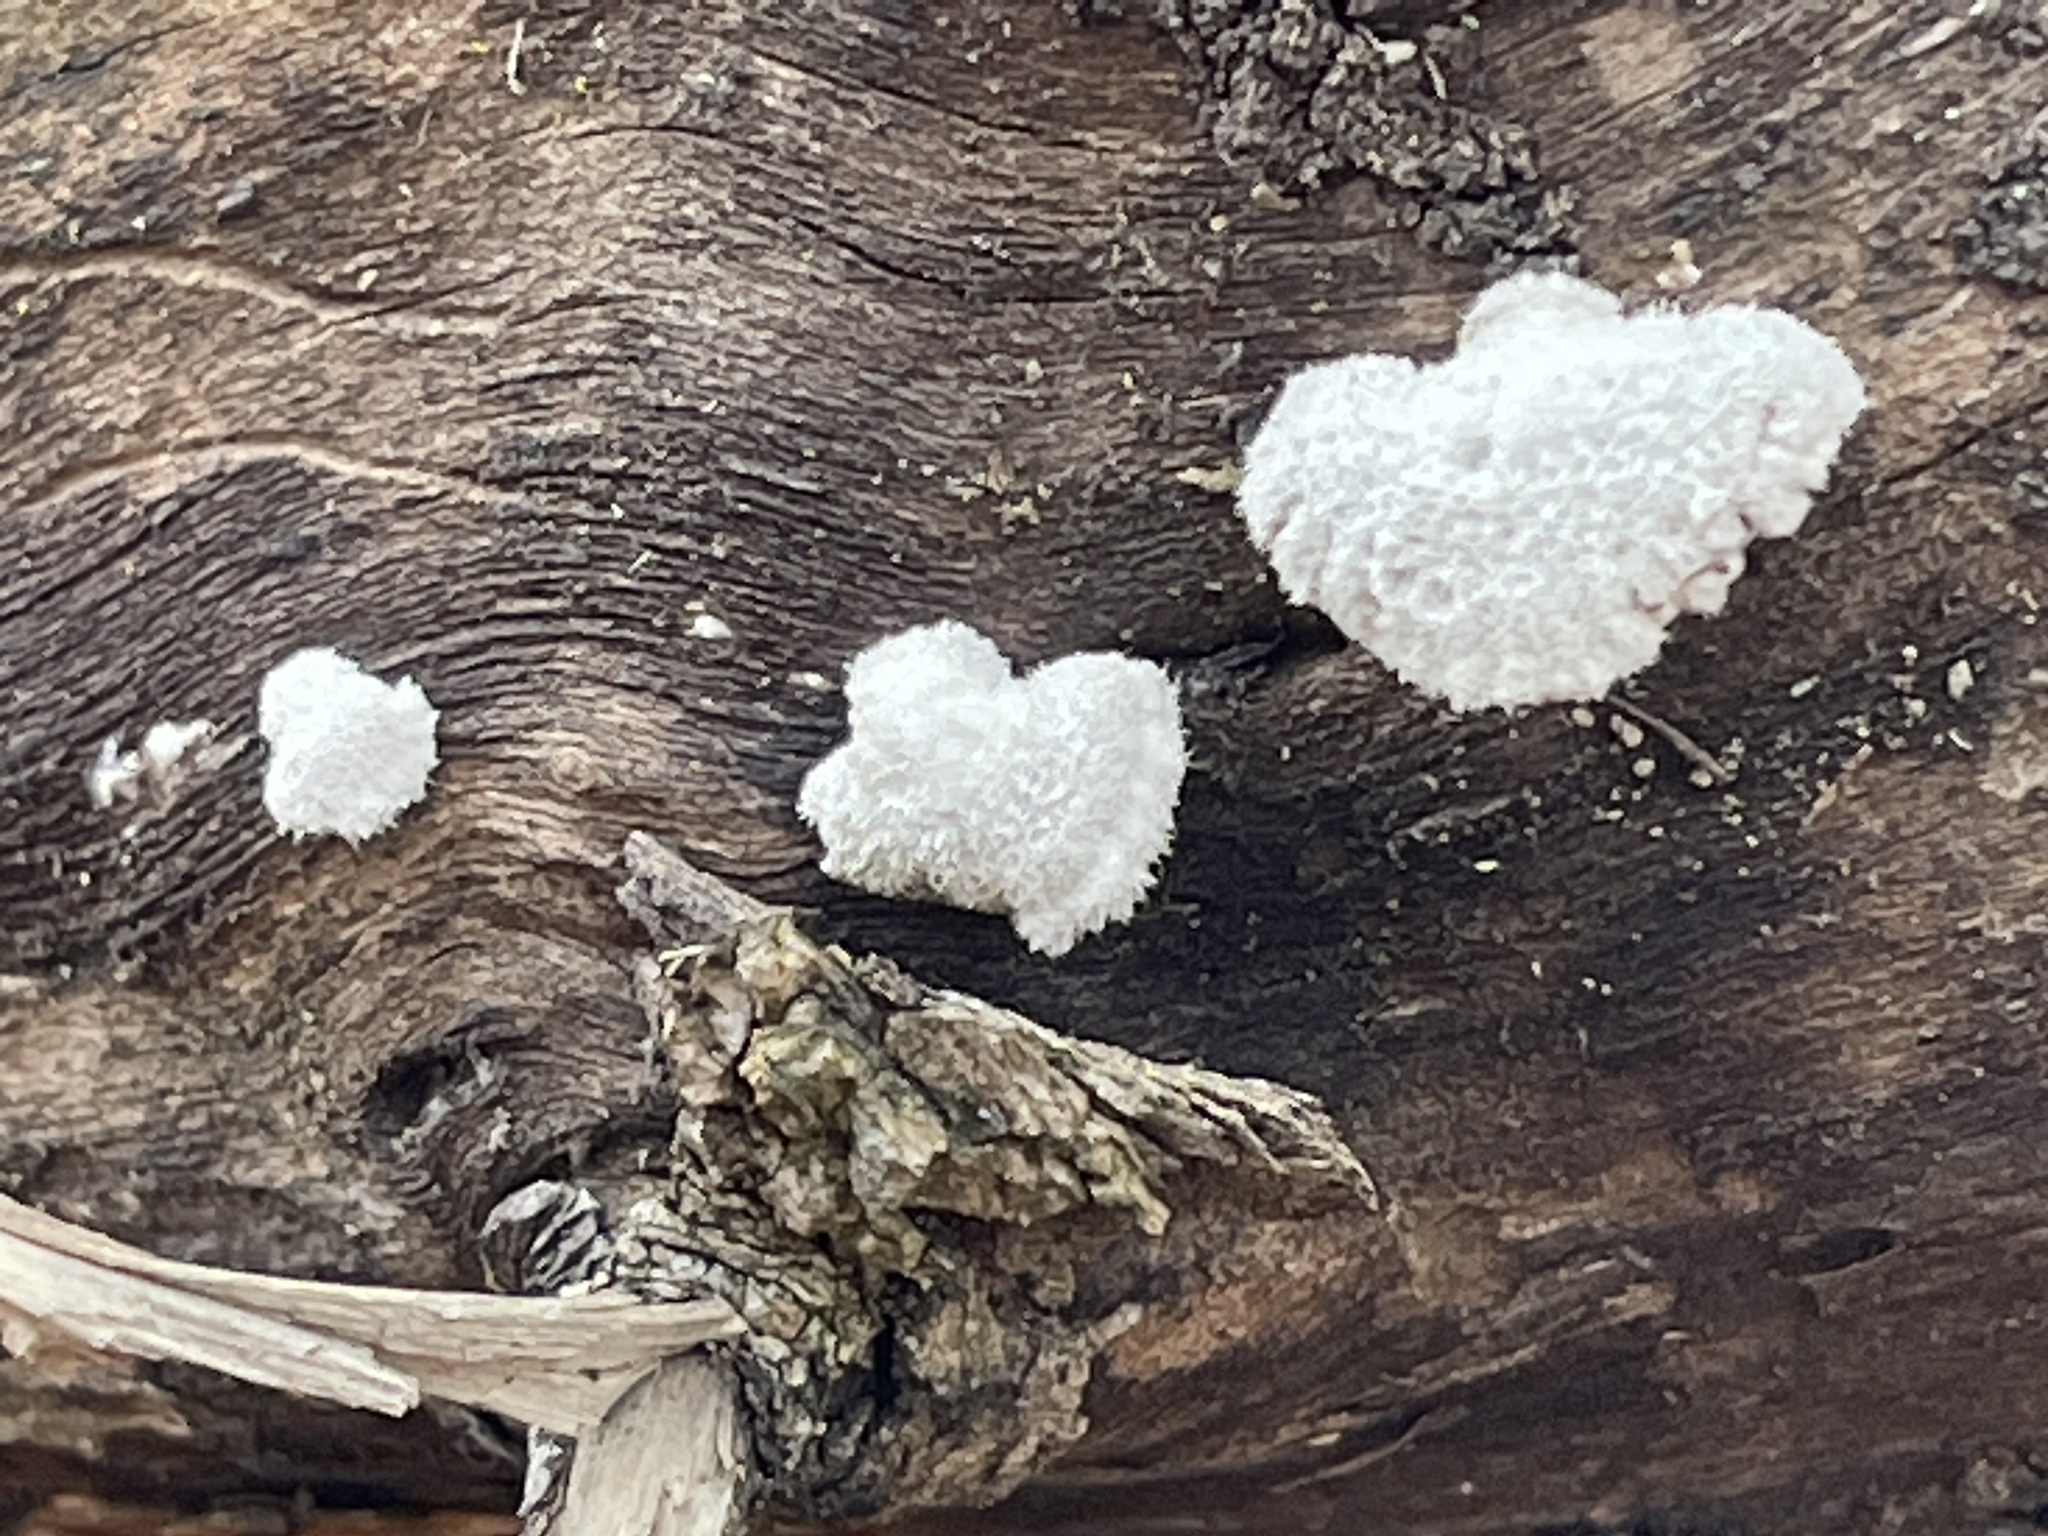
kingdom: Fungi
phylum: Basidiomycota
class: Agaricomycetes
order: Agaricales
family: Schizophyllaceae
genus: Schizophyllum
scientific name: Schizophyllum commune
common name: Common porecrust
